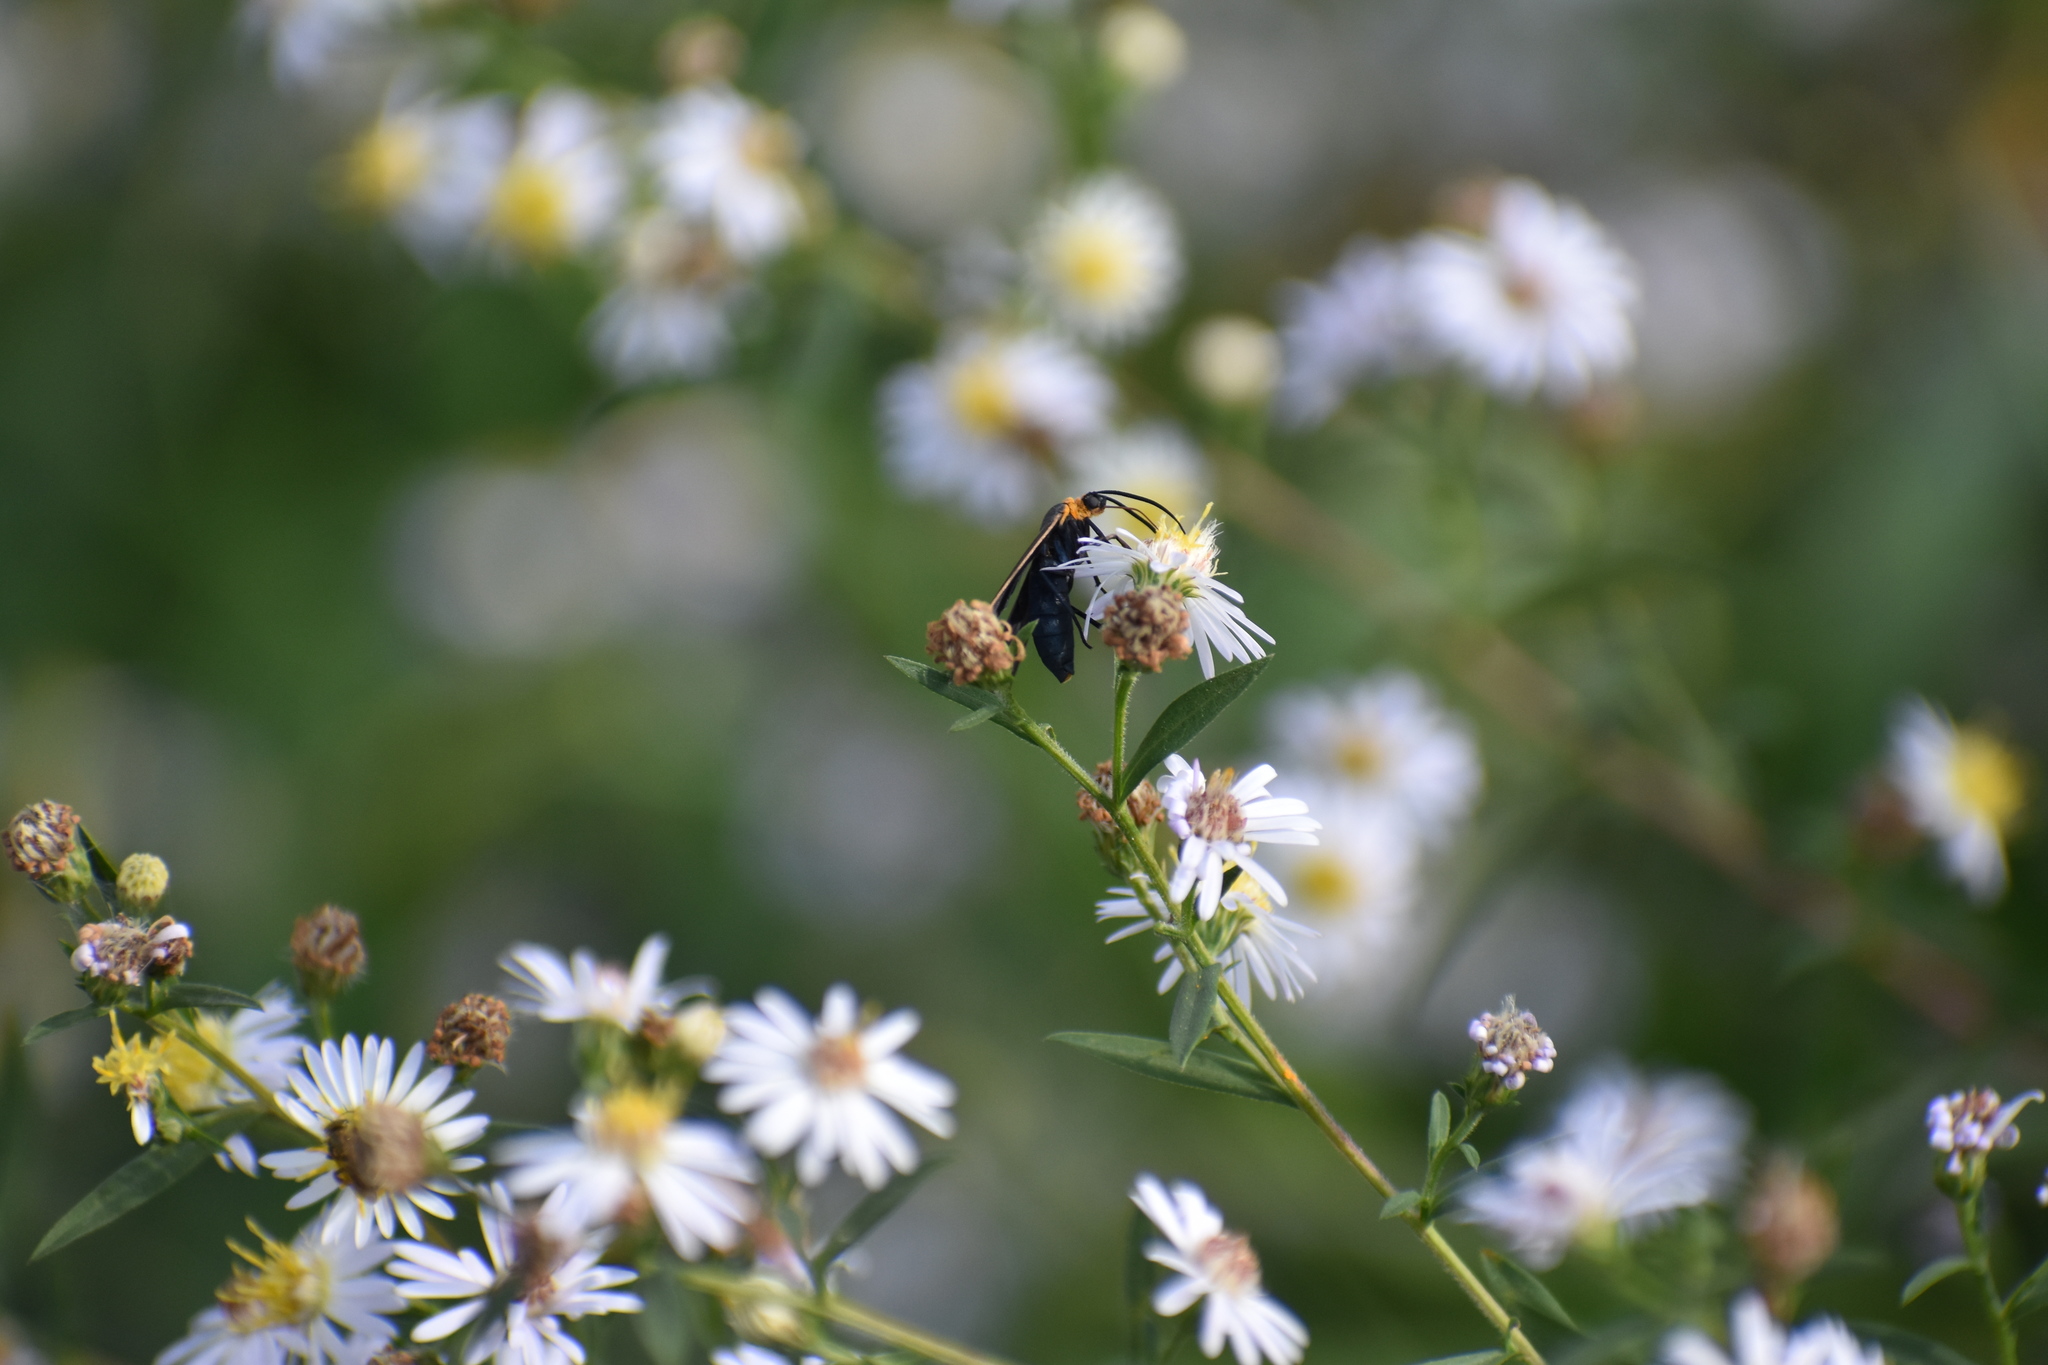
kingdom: Animalia
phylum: Arthropoda
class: Insecta
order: Lepidoptera
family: Erebidae
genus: Cisseps
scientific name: Cisseps fulvicollis
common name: Yellow-collared scape moth
